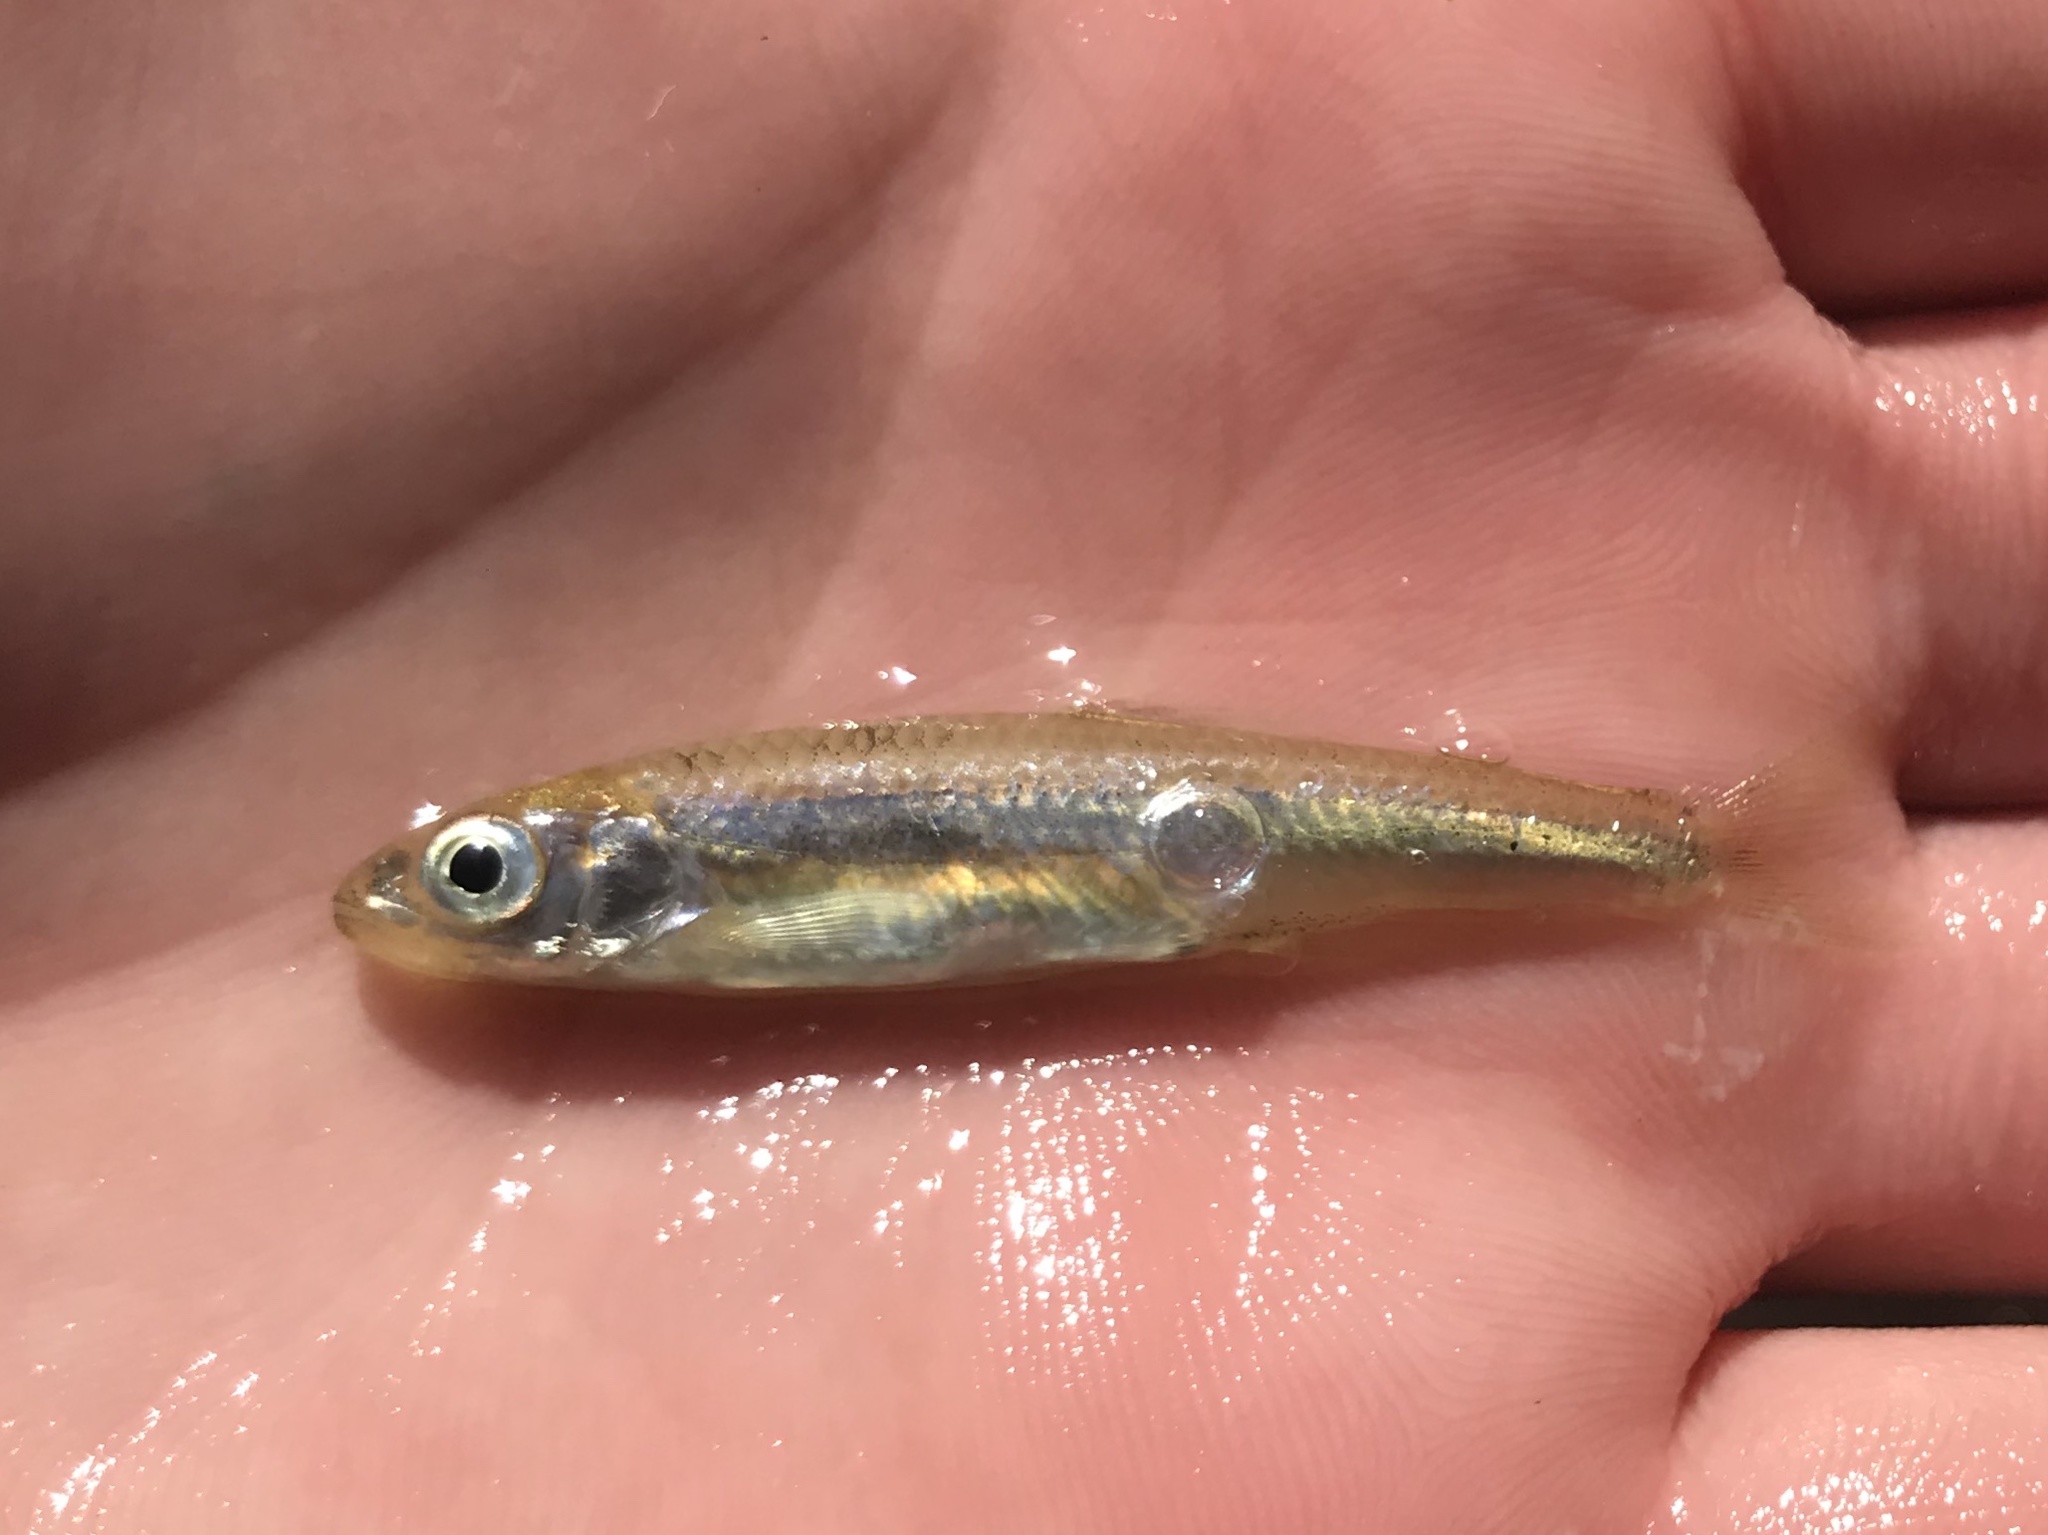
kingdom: Animalia
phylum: Chordata
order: Cypriniformes
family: Cyprinidae
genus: Notropis
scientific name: Notropis amabilis
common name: Texas shiner
